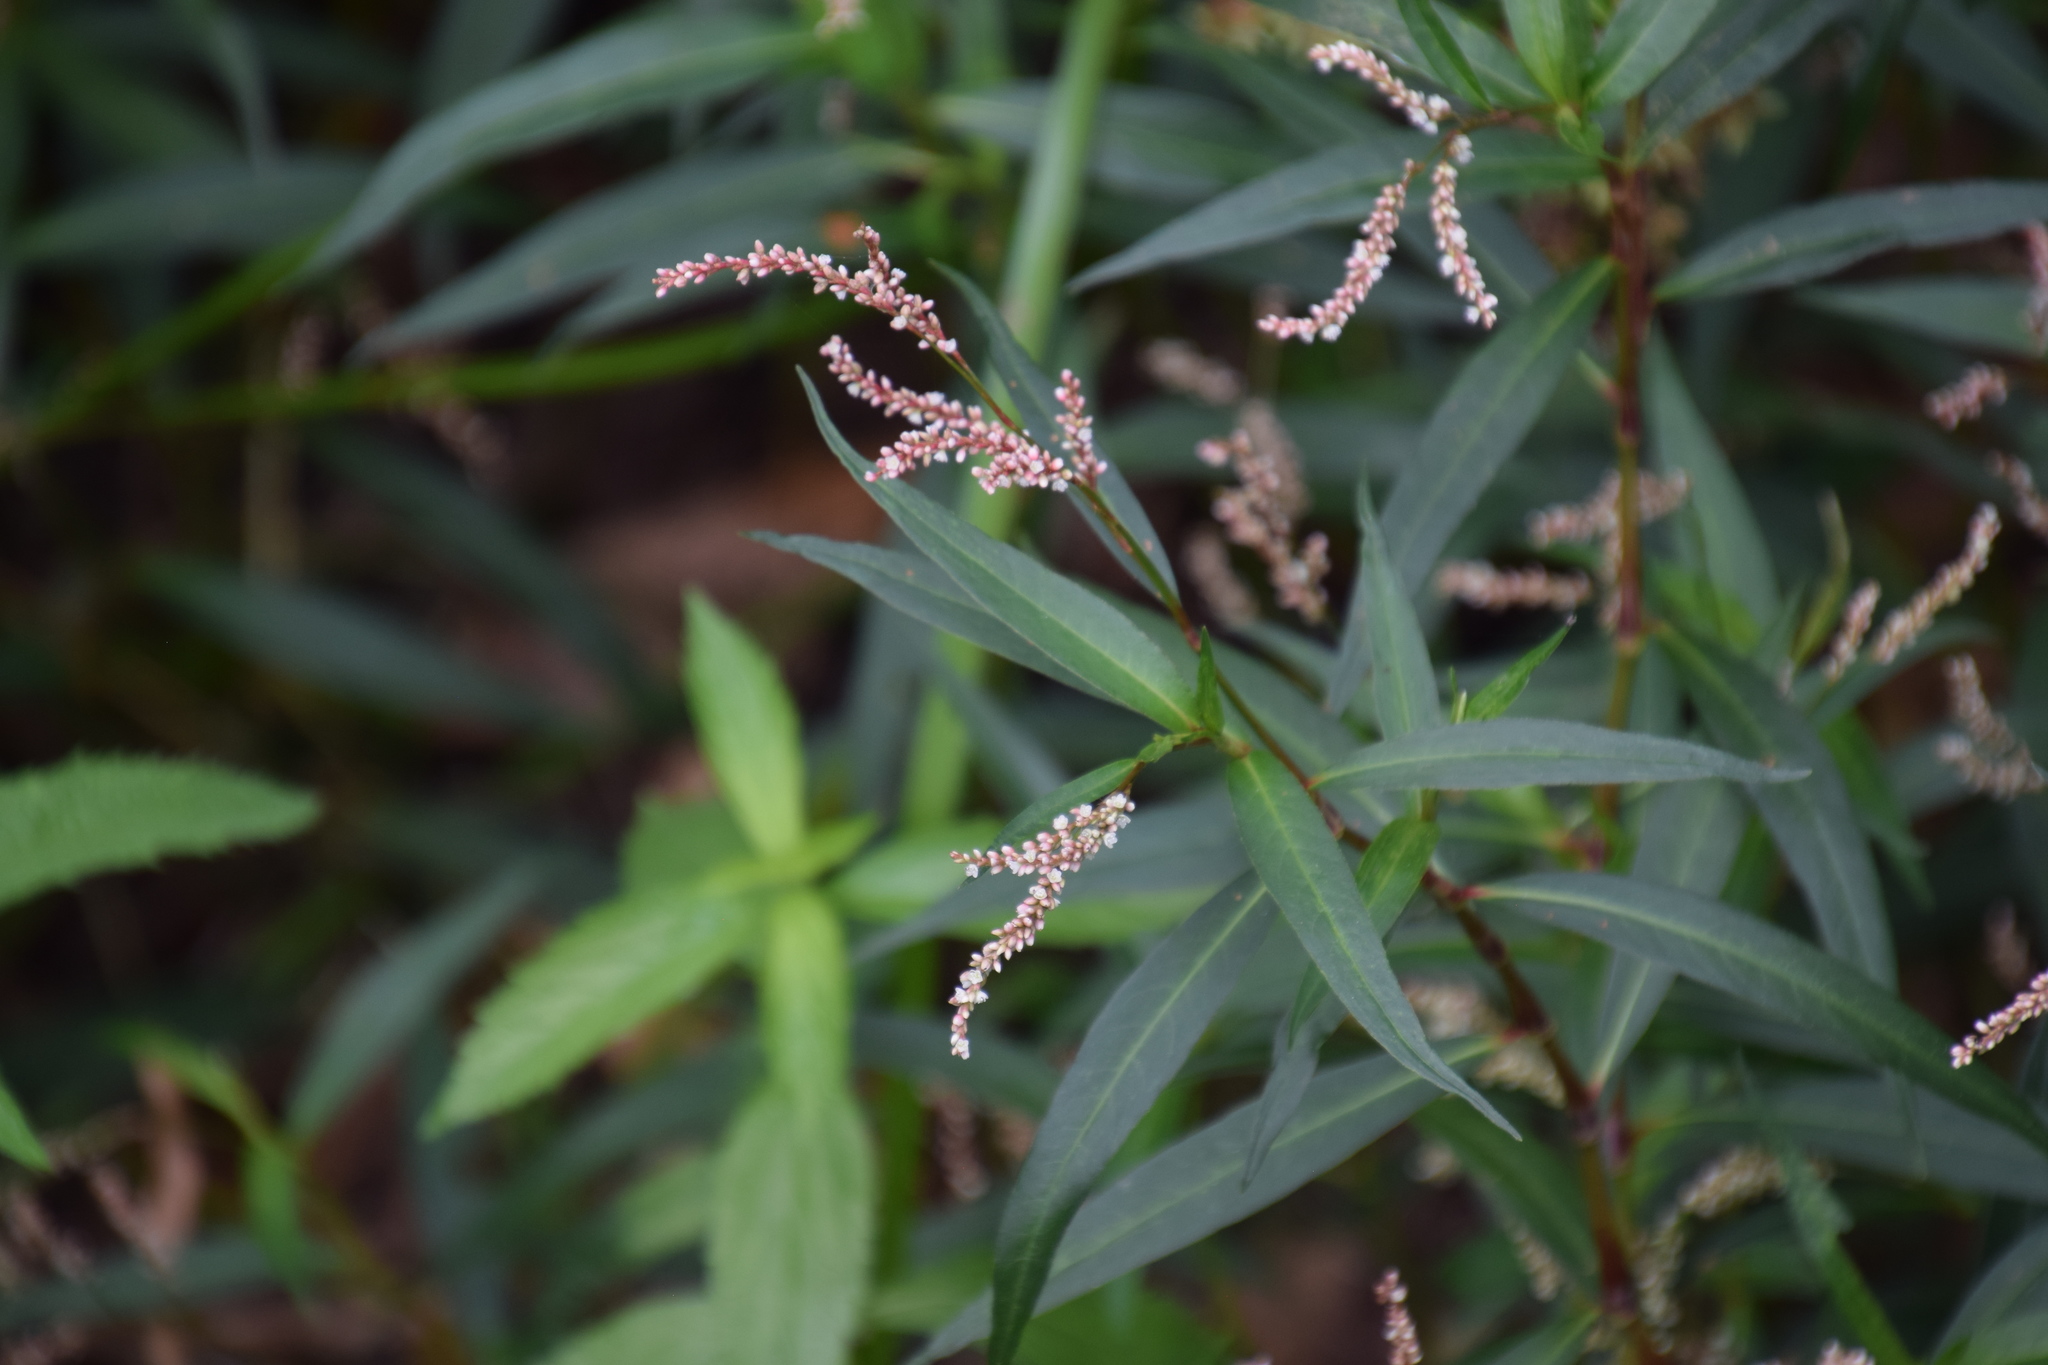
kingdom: Plantae
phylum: Tracheophyta
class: Magnoliopsida
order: Caryophyllales
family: Polygonaceae
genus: Persicaria
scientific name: Persicaria decipiens
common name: Willow-weed
